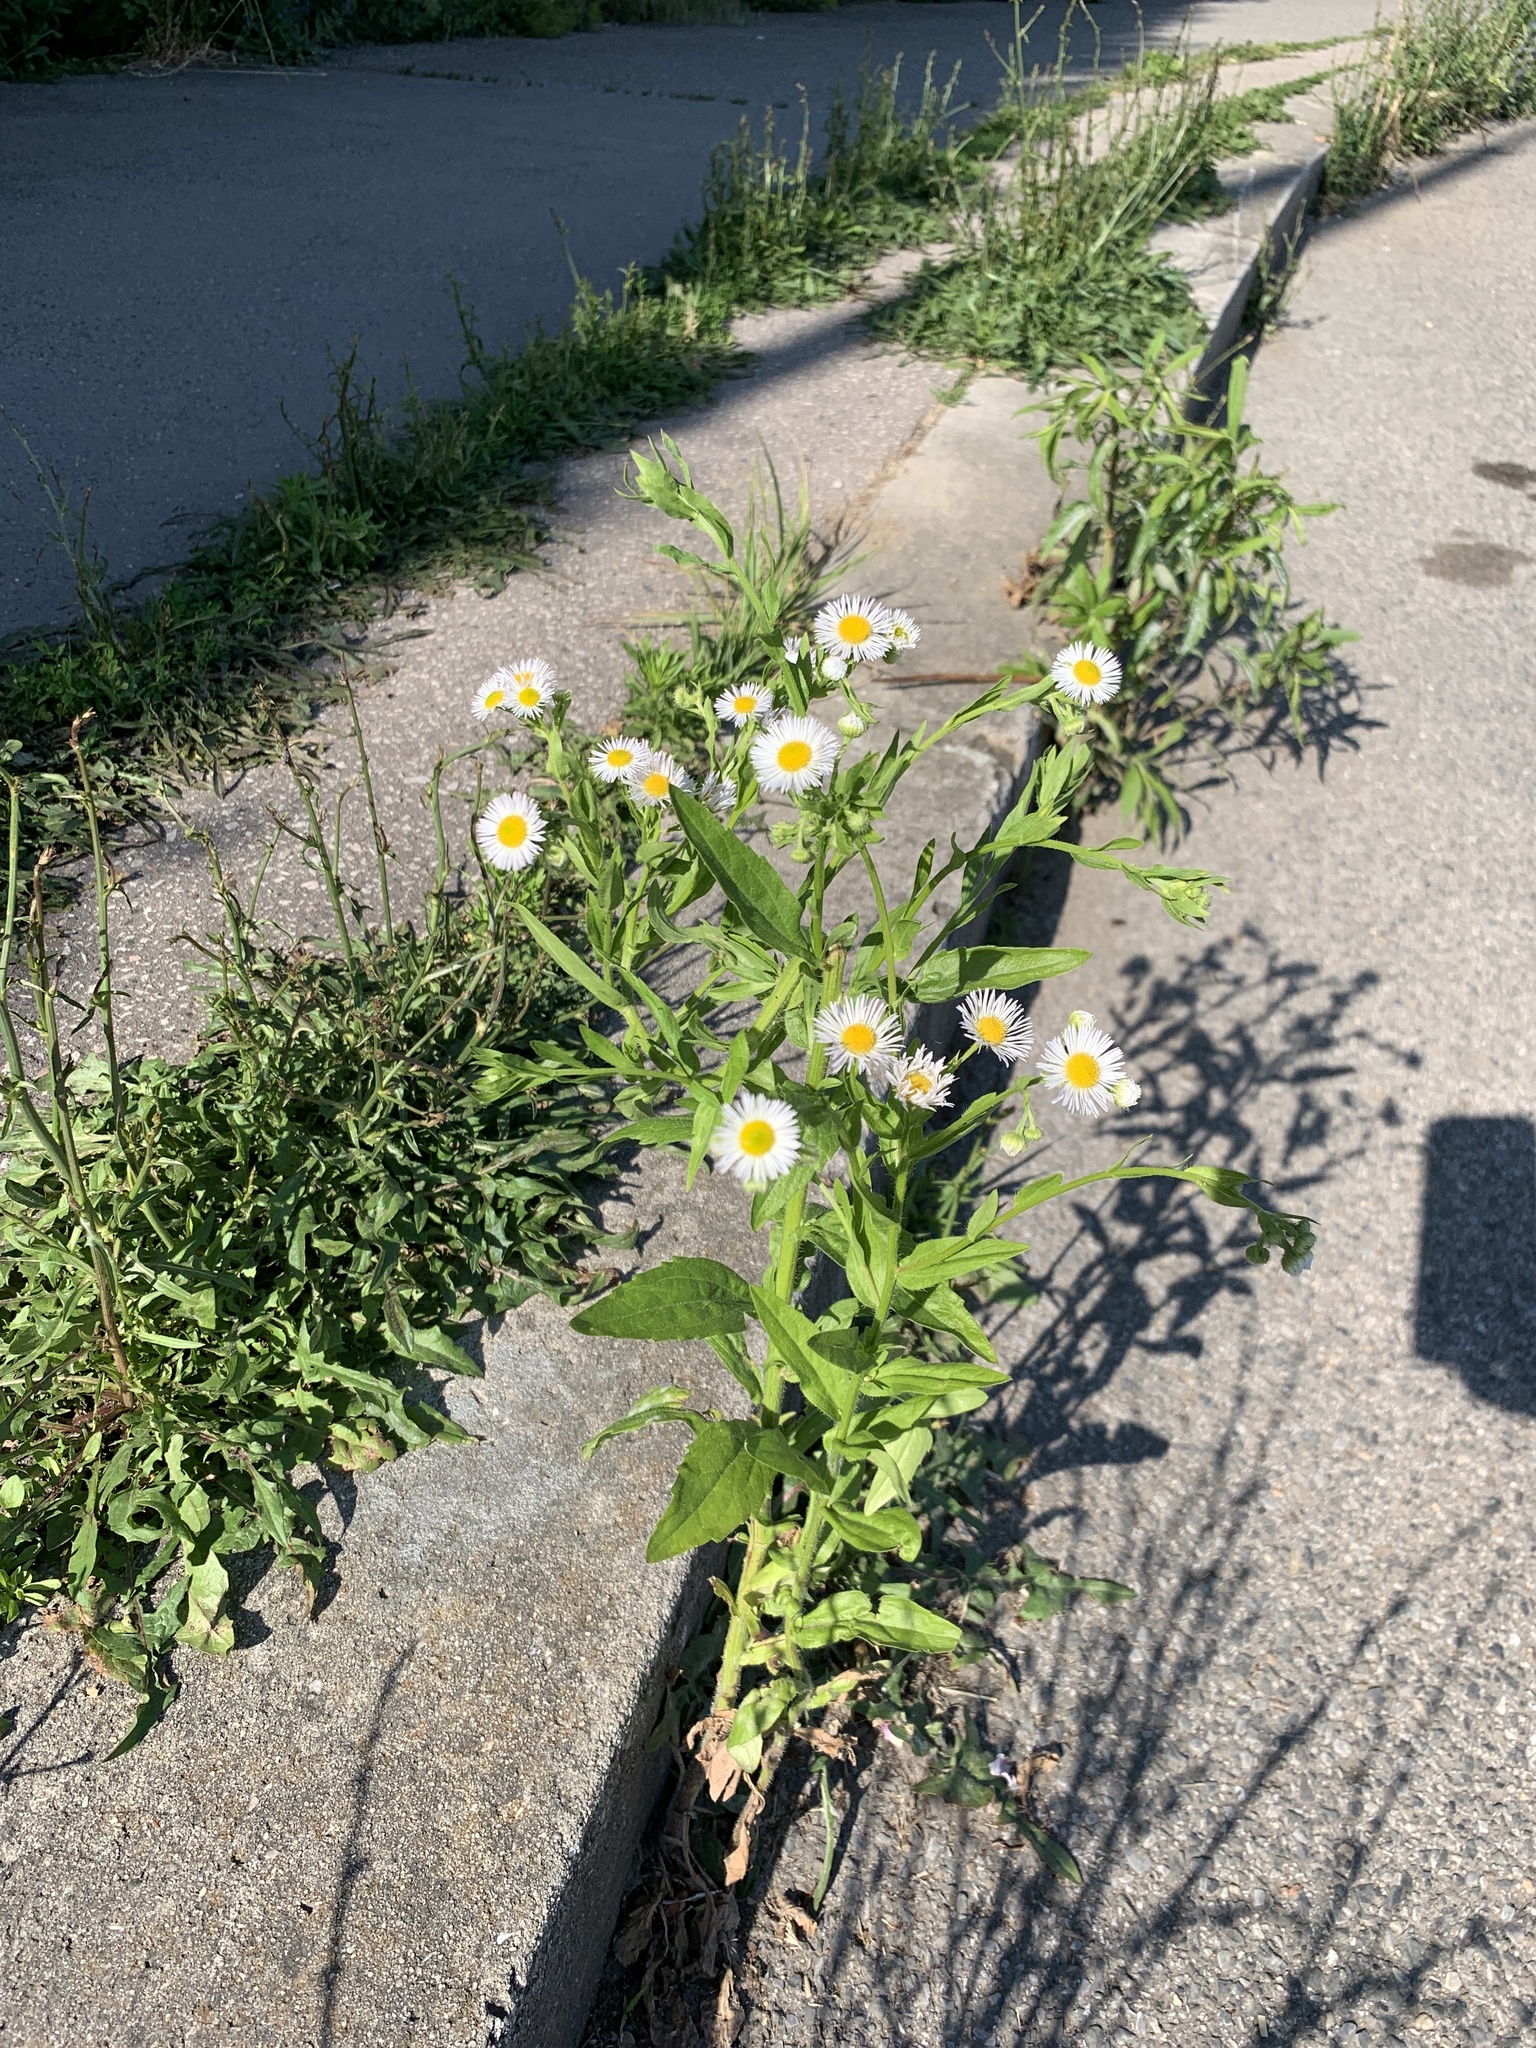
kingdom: Plantae
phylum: Tracheophyta
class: Magnoliopsida
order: Asterales
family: Asteraceae
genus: Erigeron
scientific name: Erigeron annuus
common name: Tall fleabane
